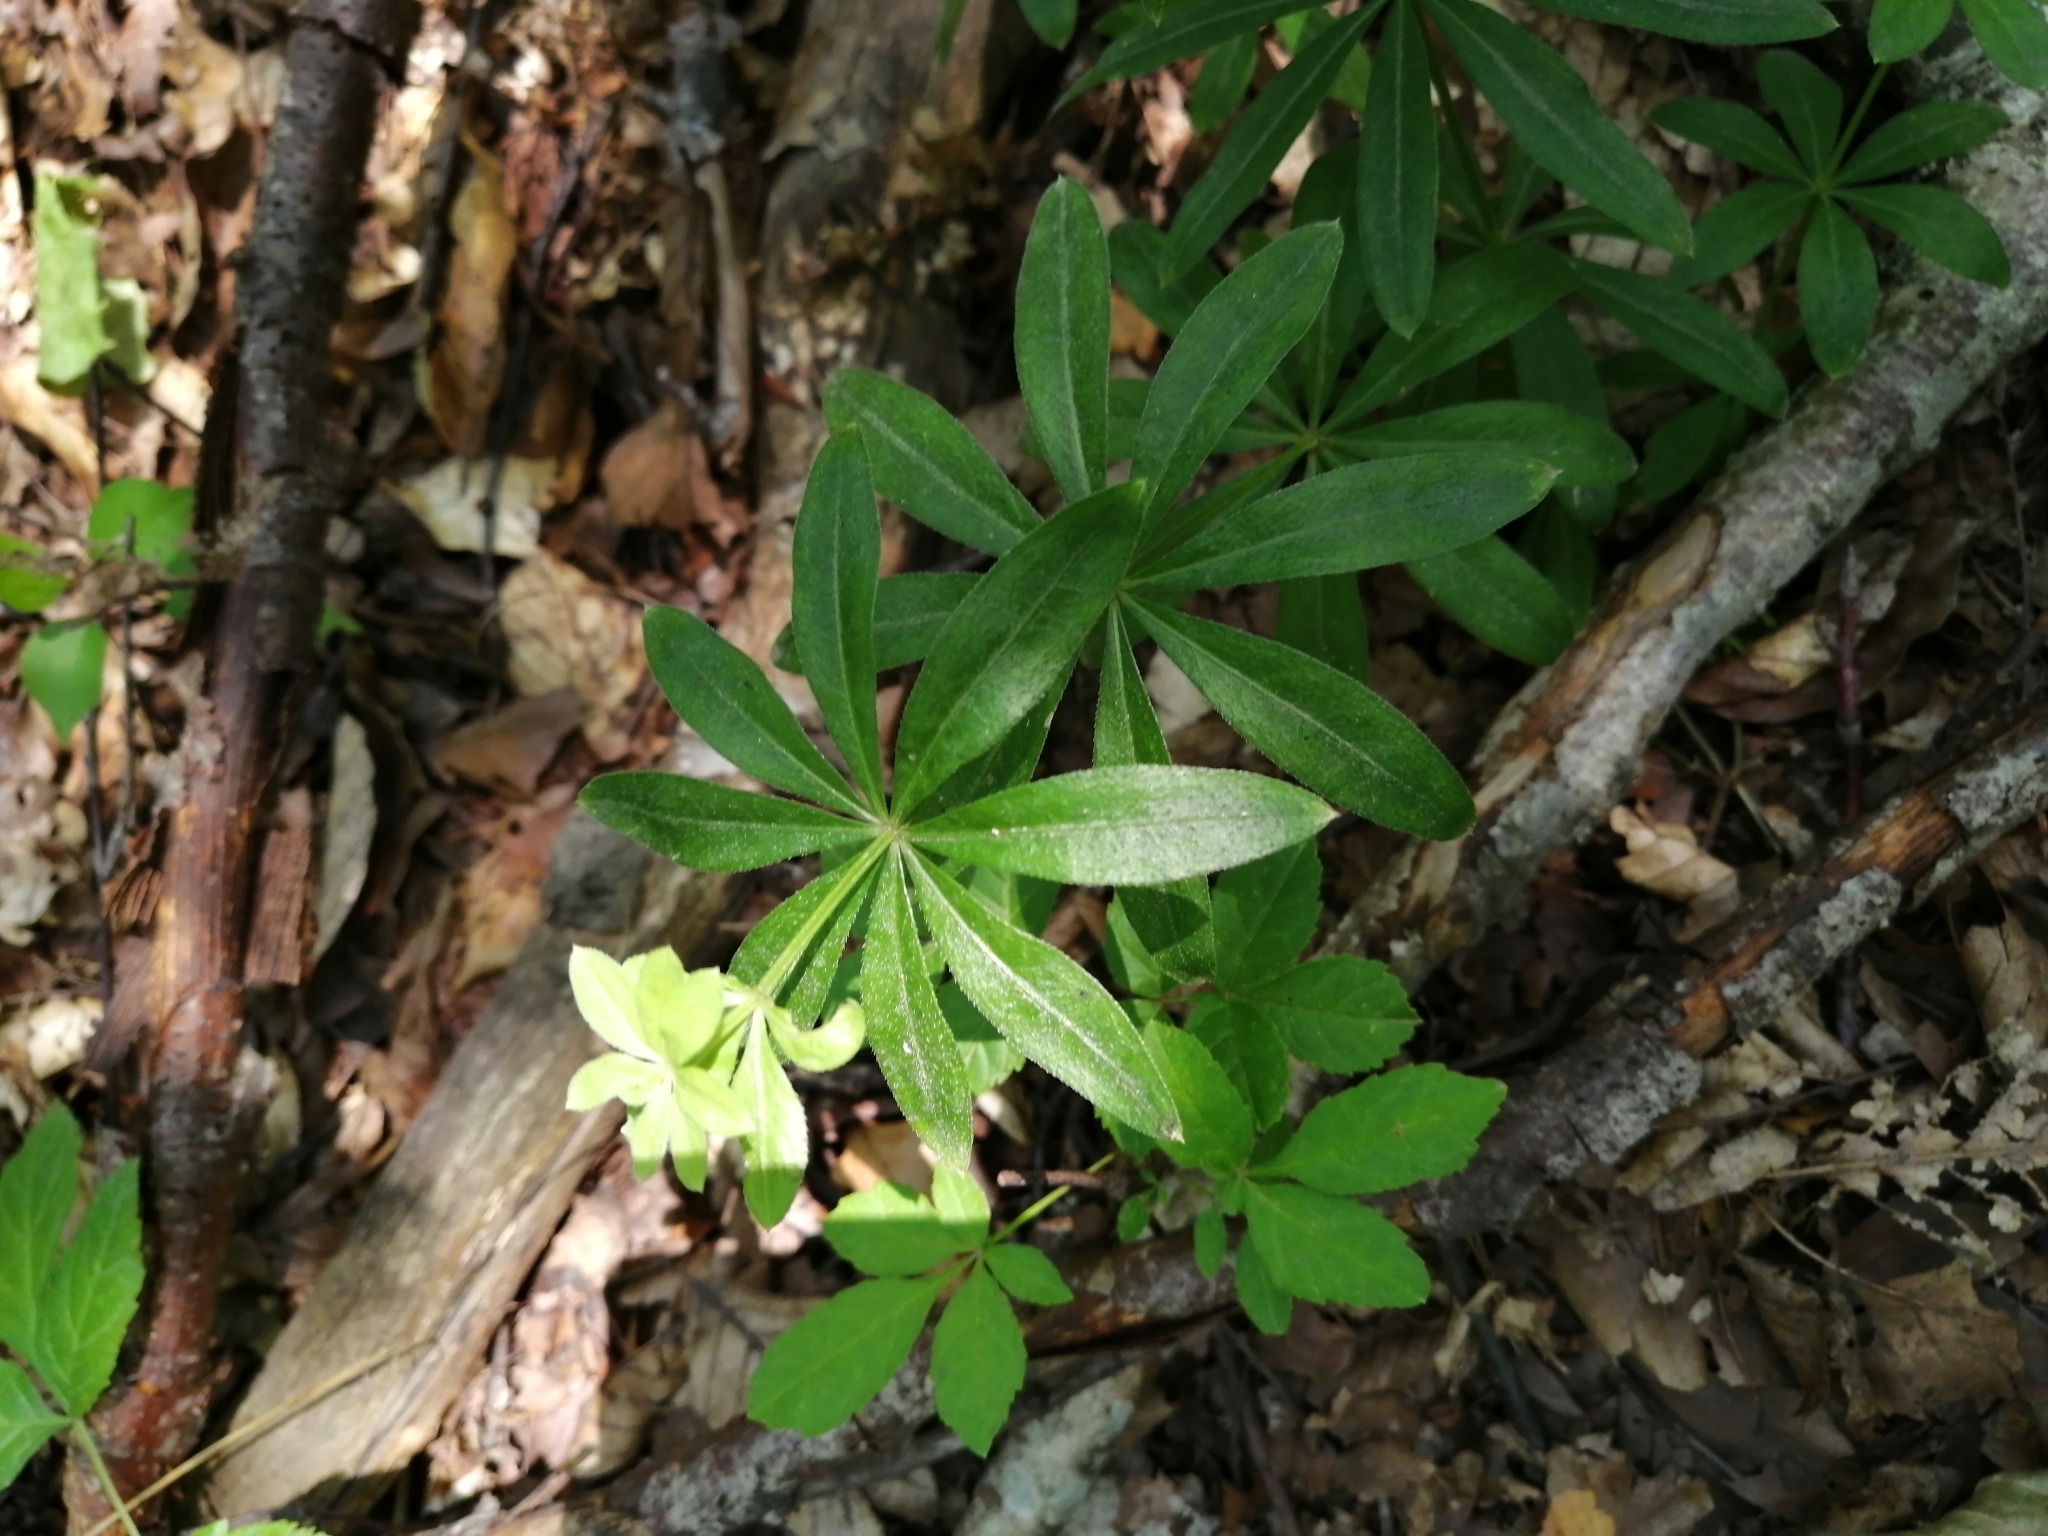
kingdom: Plantae
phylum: Tracheophyta
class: Magnoliopsida
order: Gentianales
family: Rubiaceae
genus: Galium
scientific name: Galium odoratum
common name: Sweet woodruff
